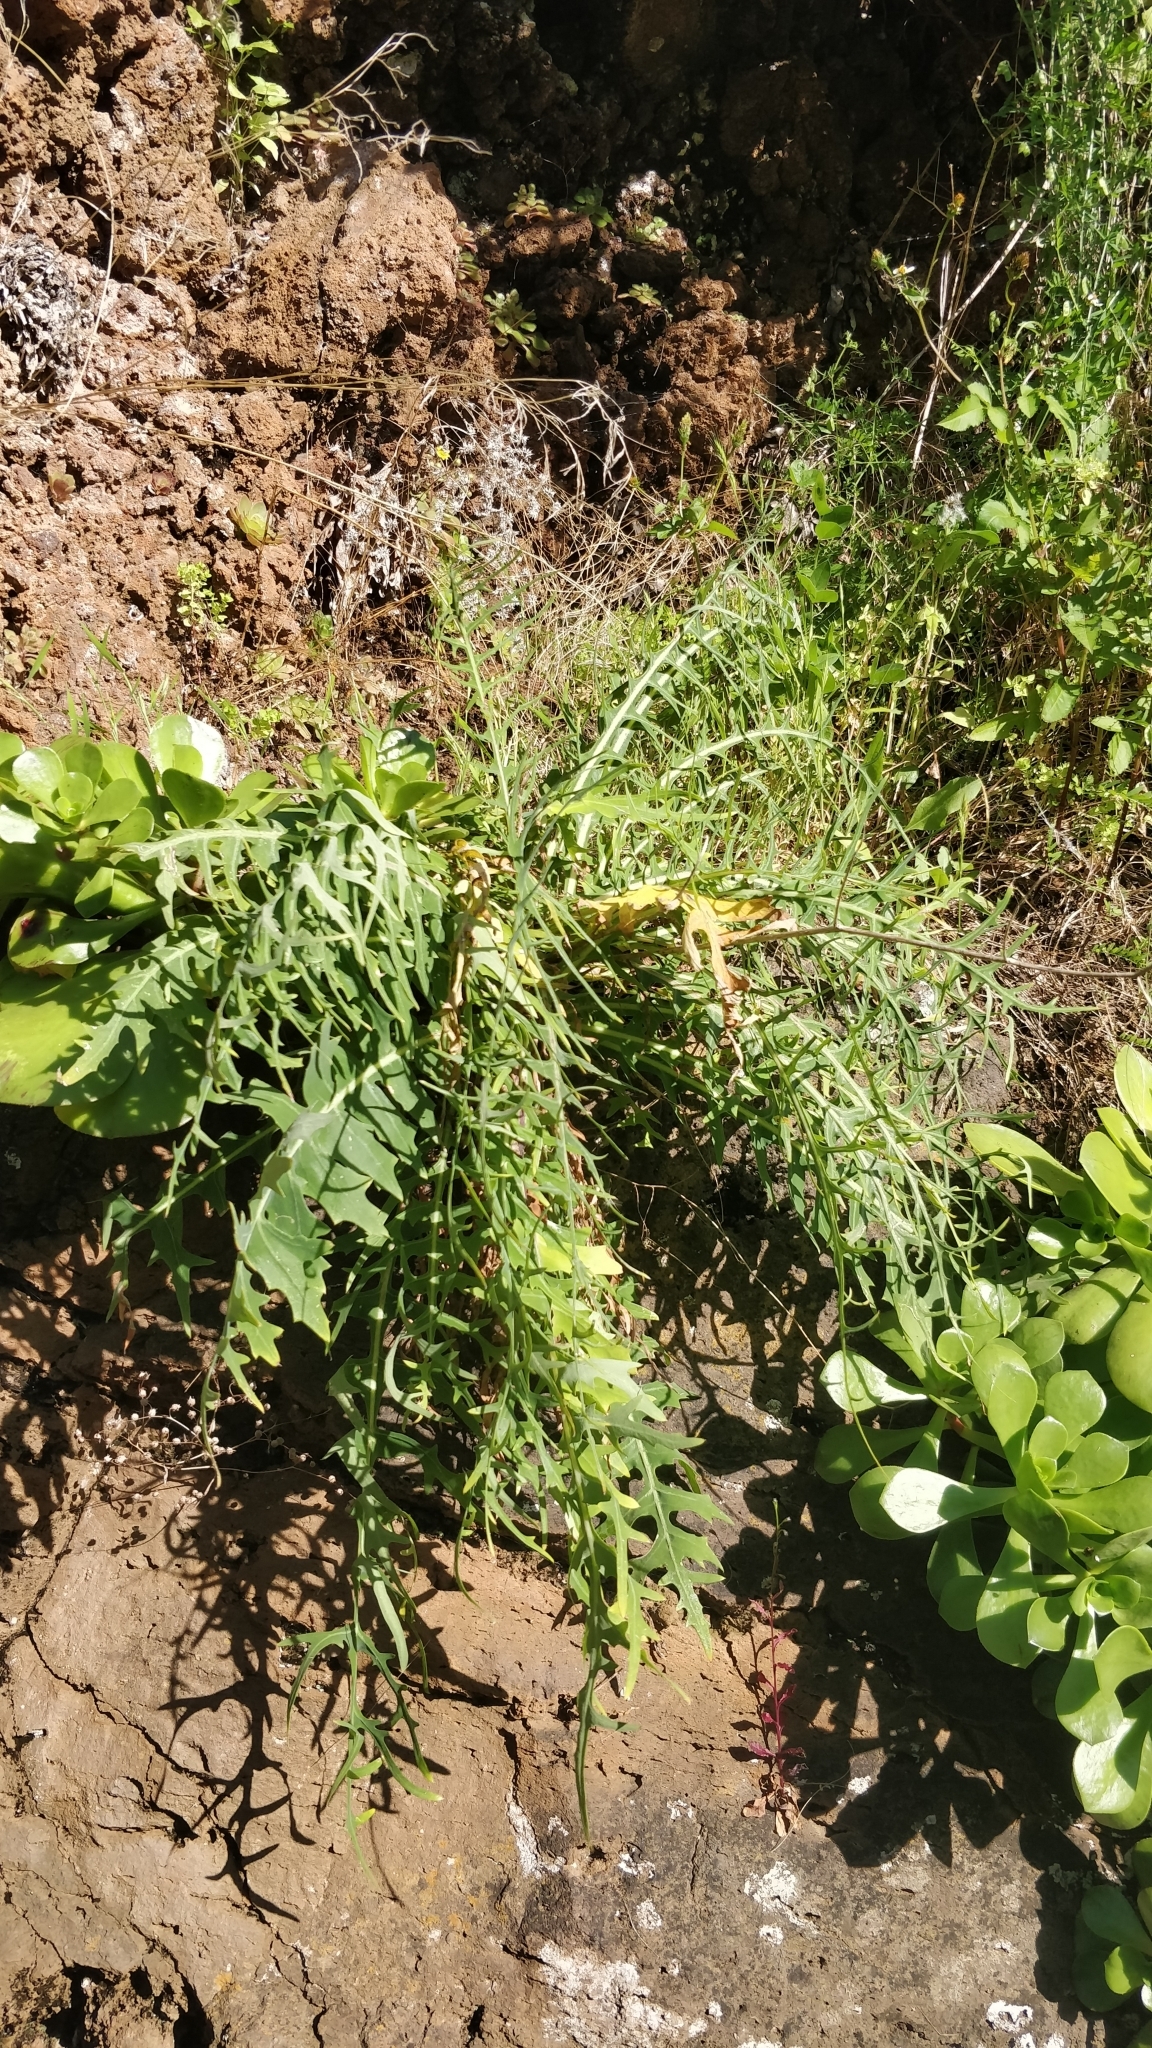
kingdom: Plantae
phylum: Tracheophyta
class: Magnoliopsida
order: Asterales
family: Asteraceae
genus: Sonchus
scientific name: Sonchus ustulatus
